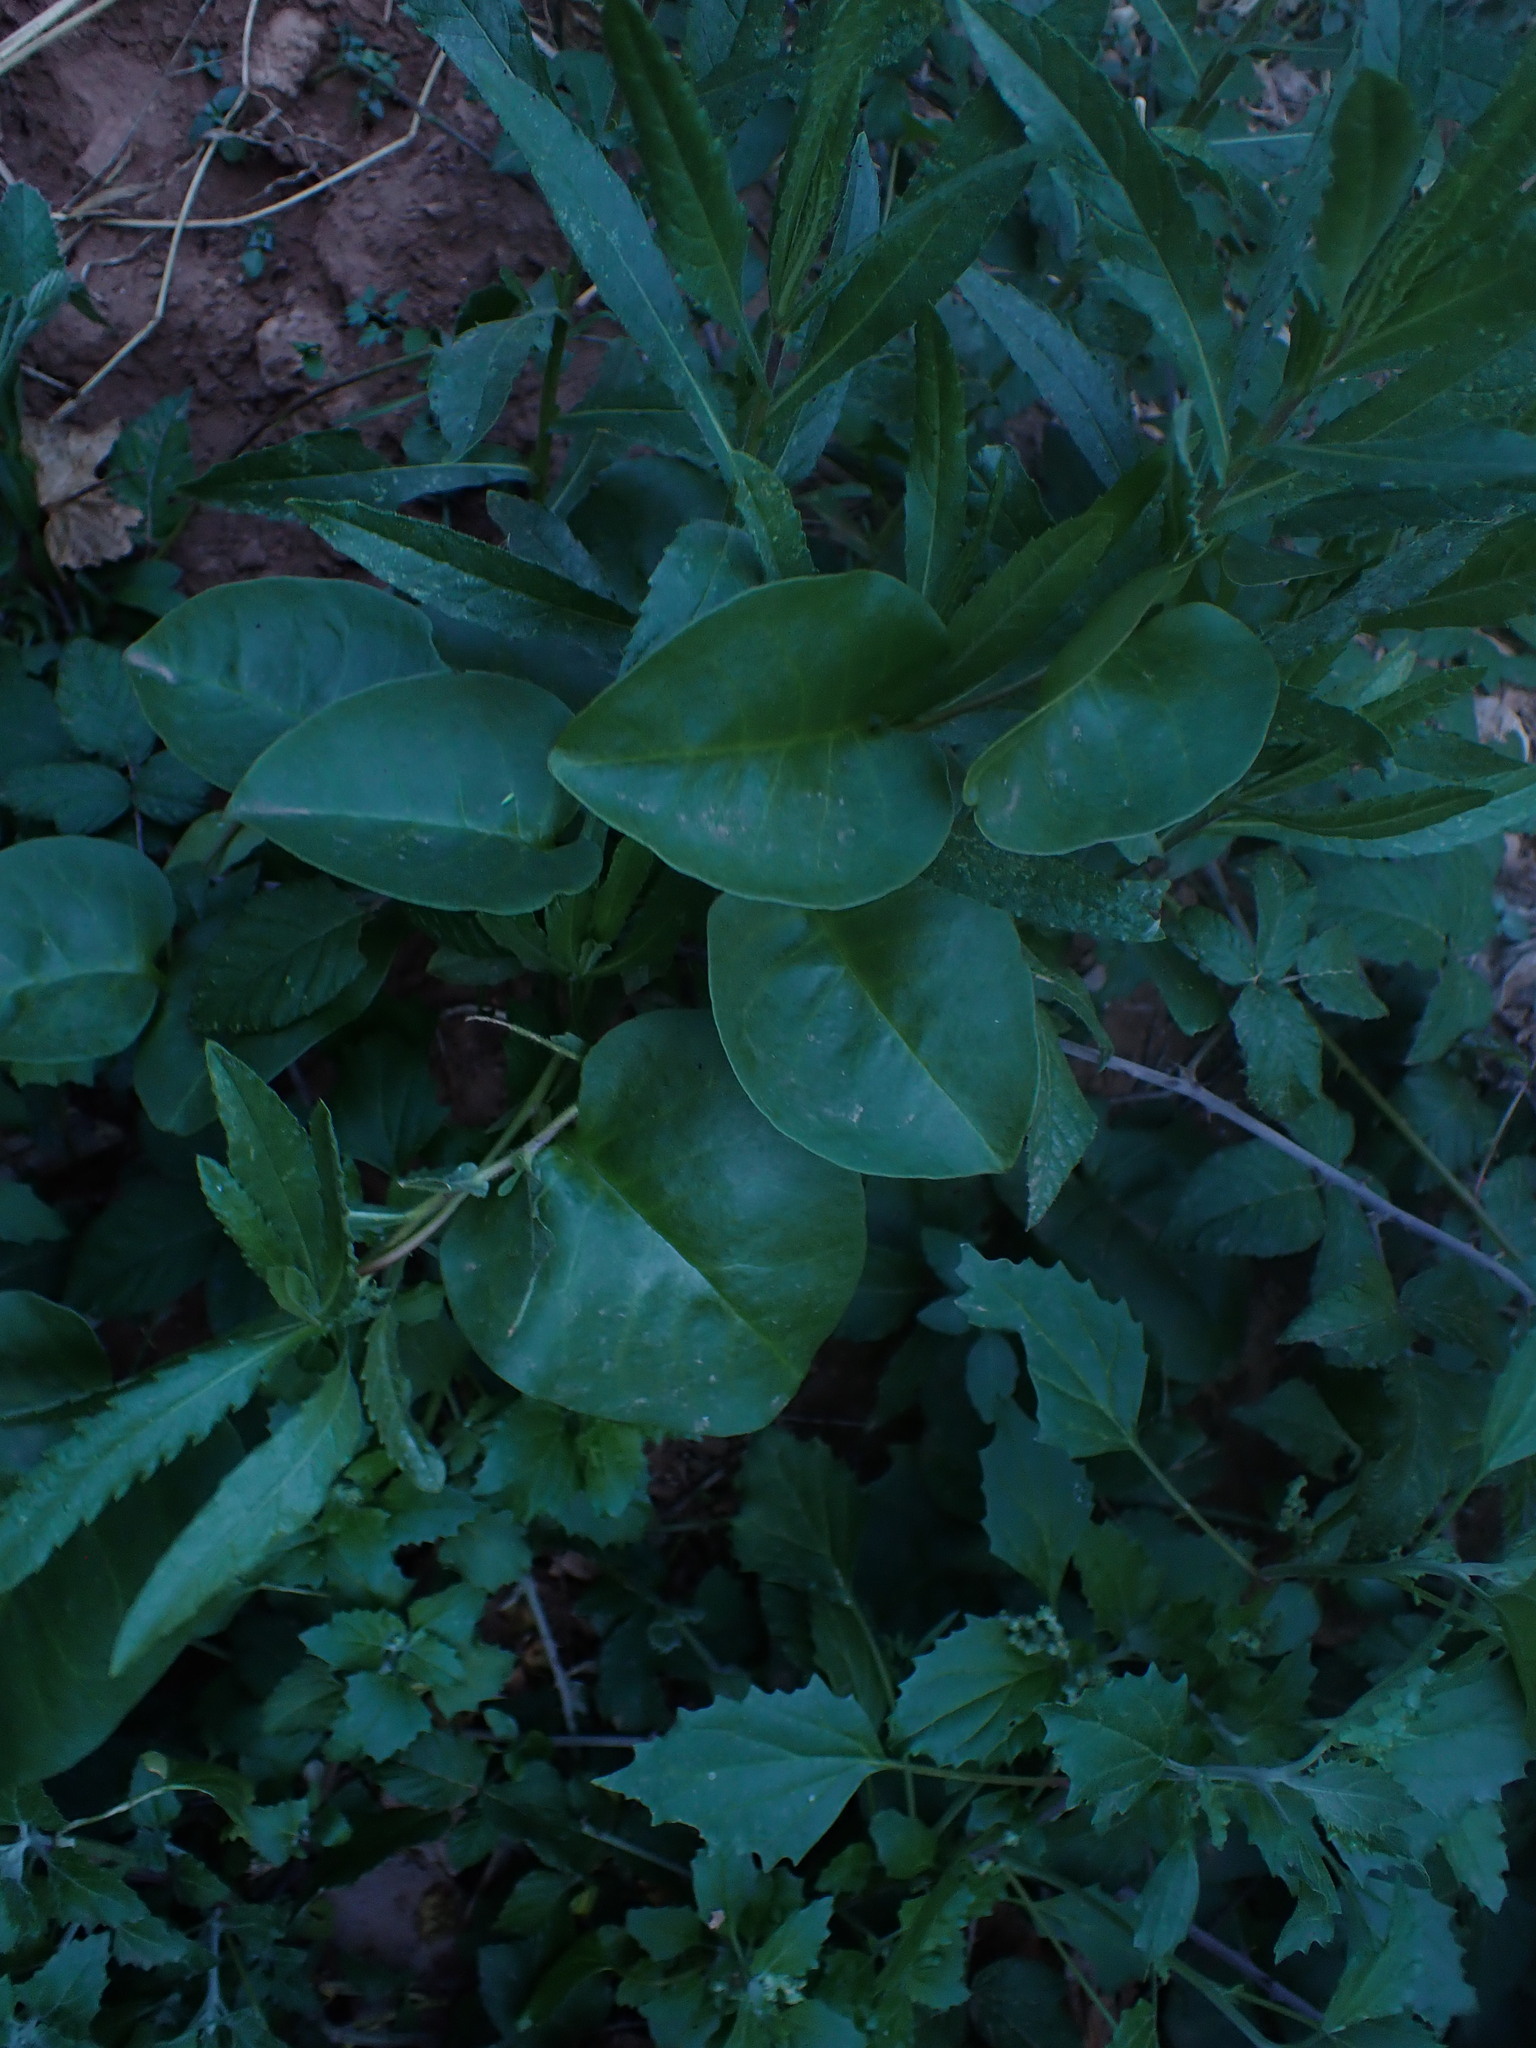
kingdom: Plantae
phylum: Tracheophyta
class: Magnoliopsida
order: Caryophyllales
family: Basellaceae
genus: Anredera
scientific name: Anredera cordifolia
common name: Heartleaf madeiravine
